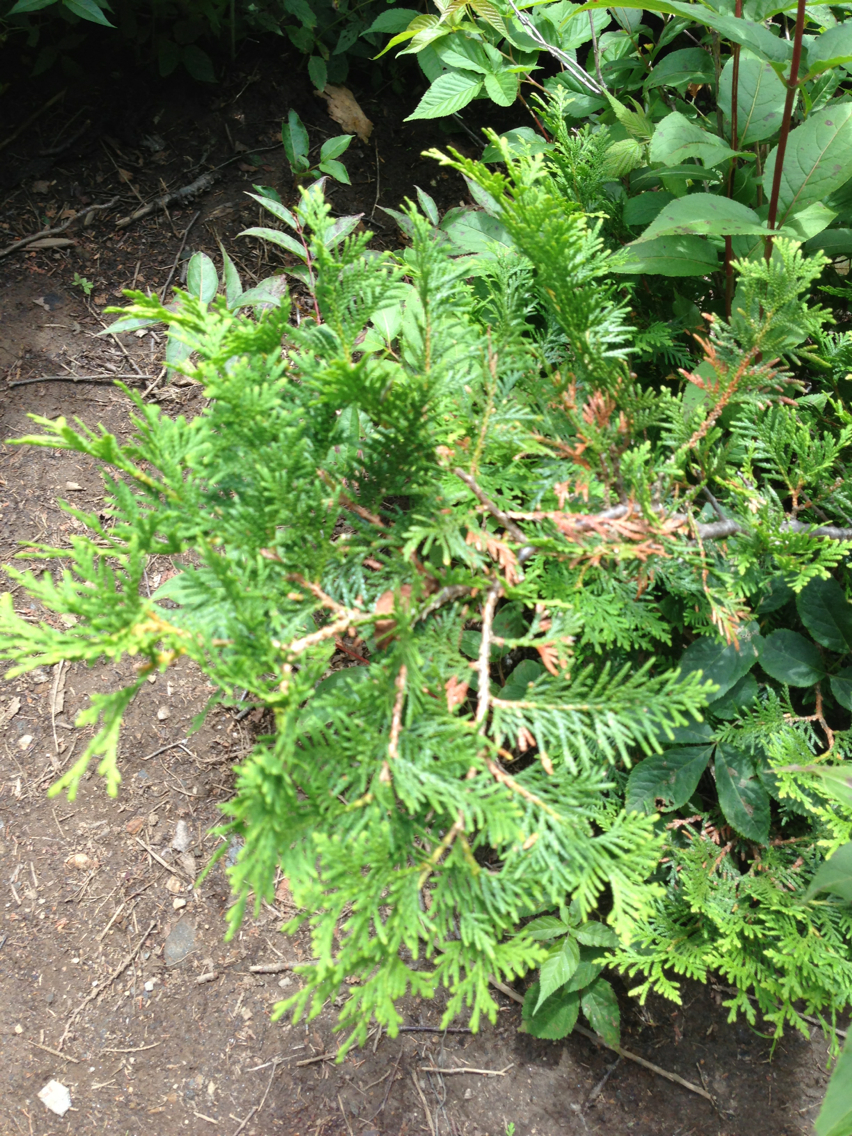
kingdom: Plantae
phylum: Tracheophyta
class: Pinopsida
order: Pinales
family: Cupressaceae
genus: Thuja
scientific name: Thuja occidentalis
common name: Northern white-cedar
